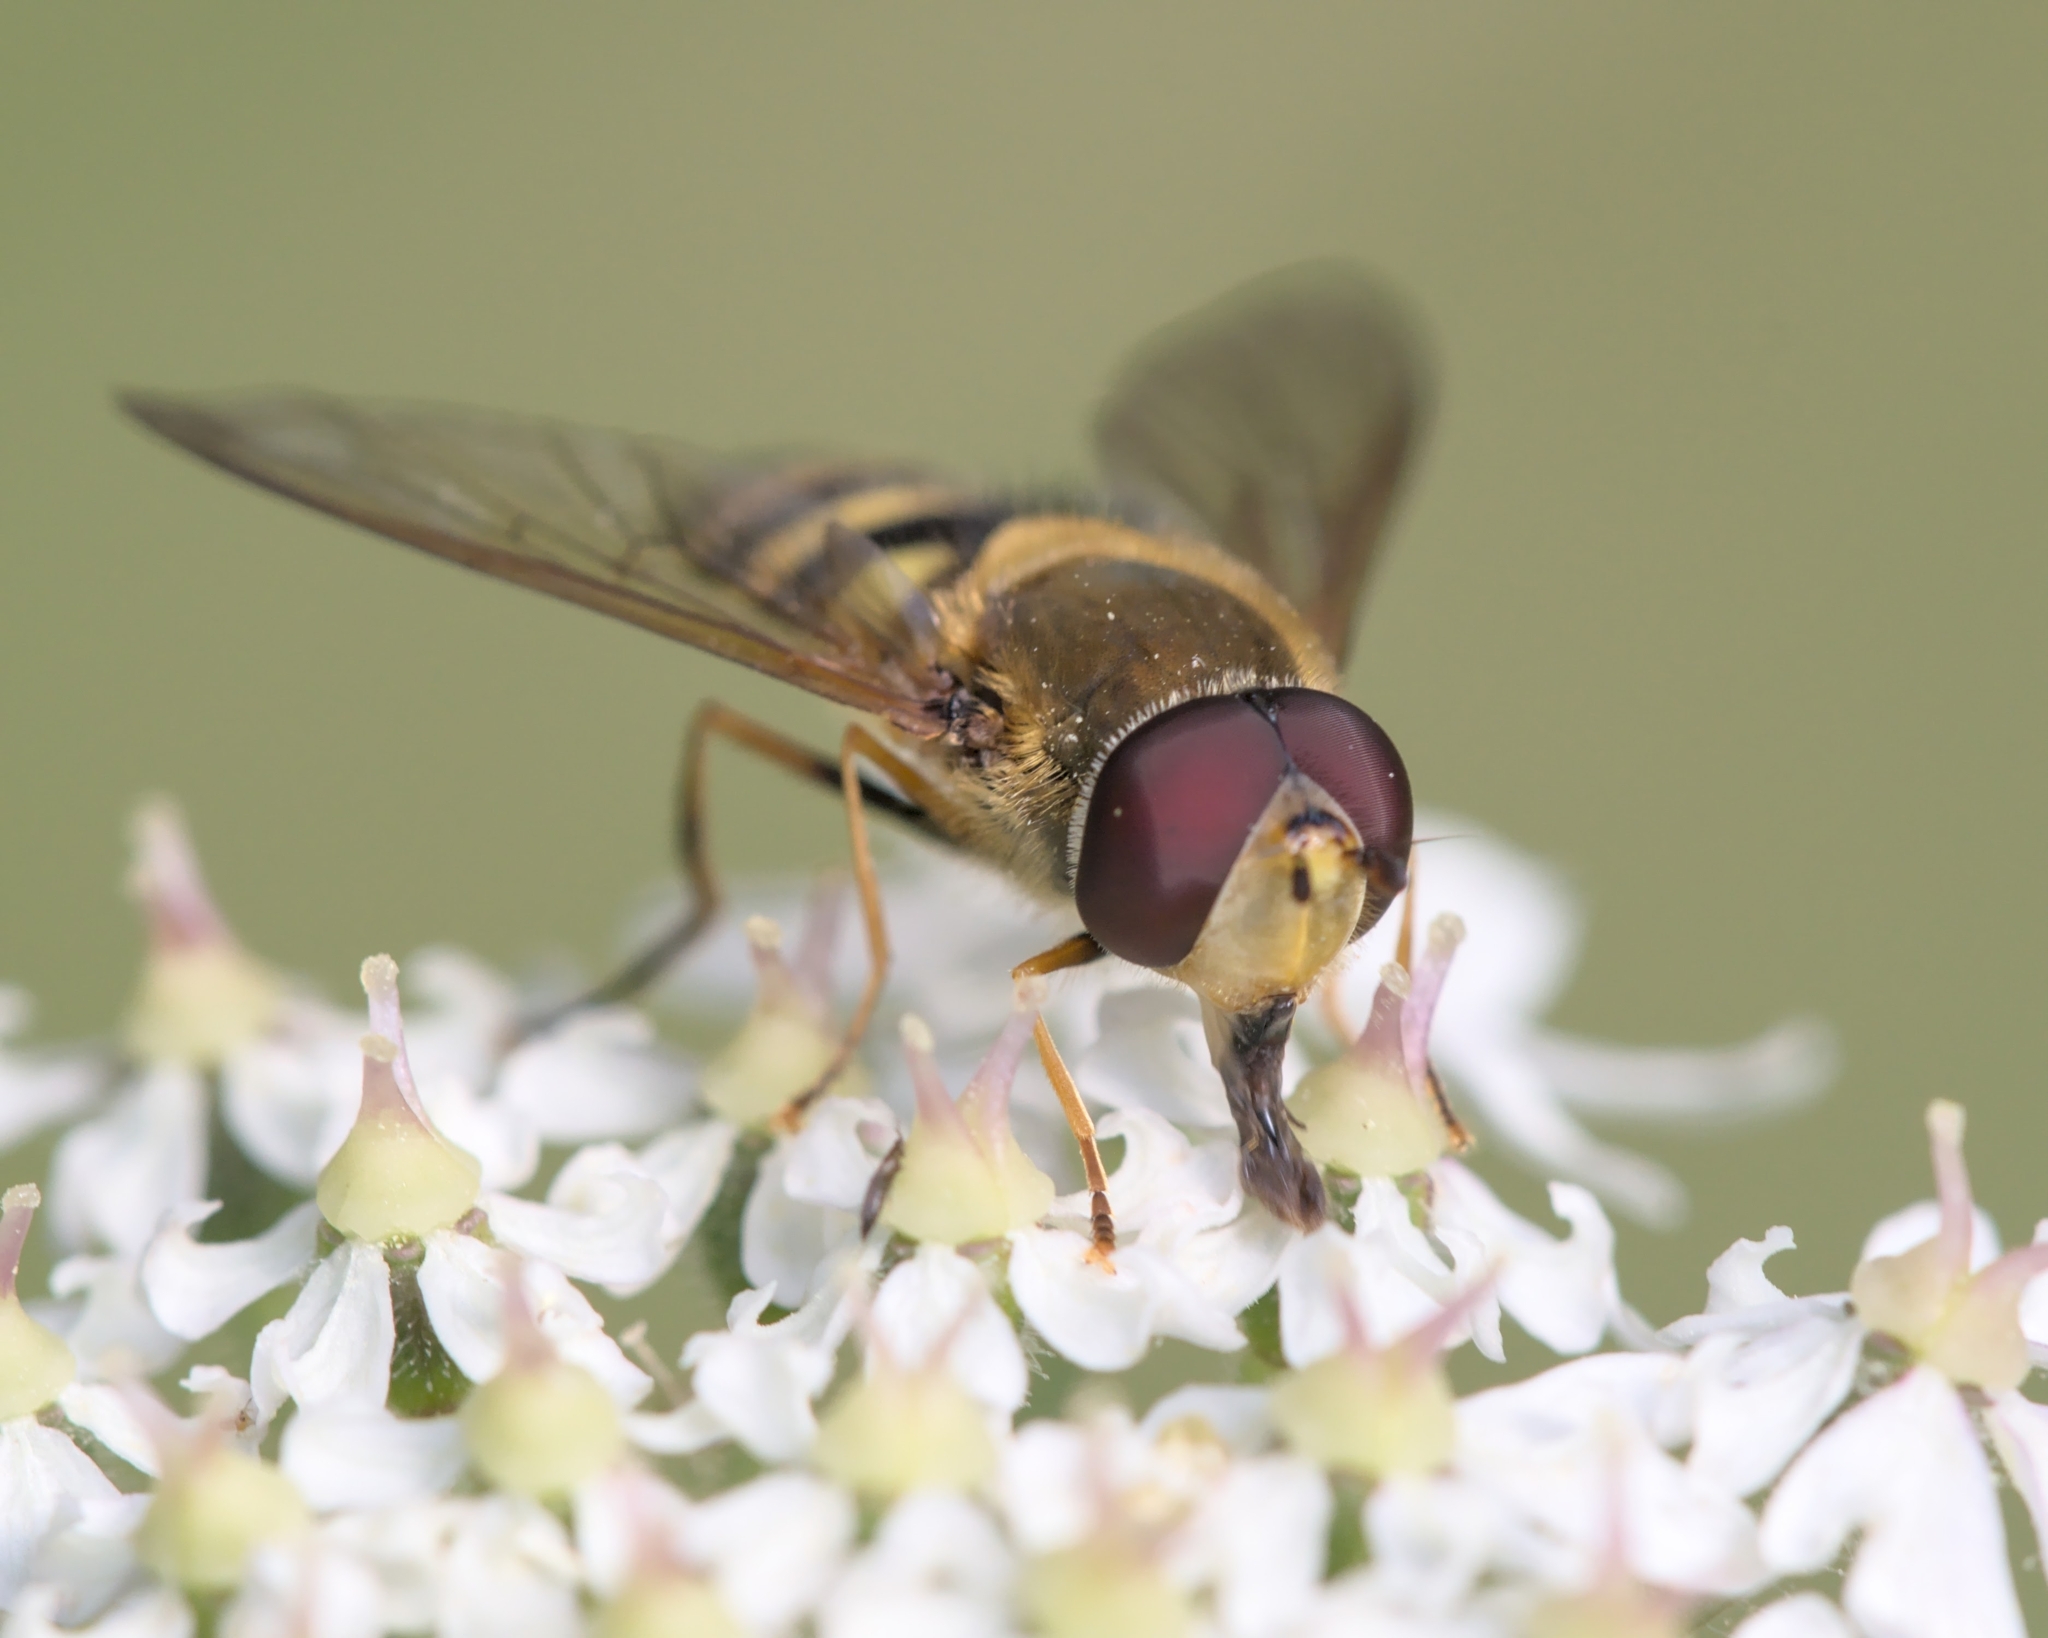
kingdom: Animalia
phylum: Arthropoda
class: Insecta
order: Diptera
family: Syrphidae
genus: Syrphus
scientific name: Syrphus
